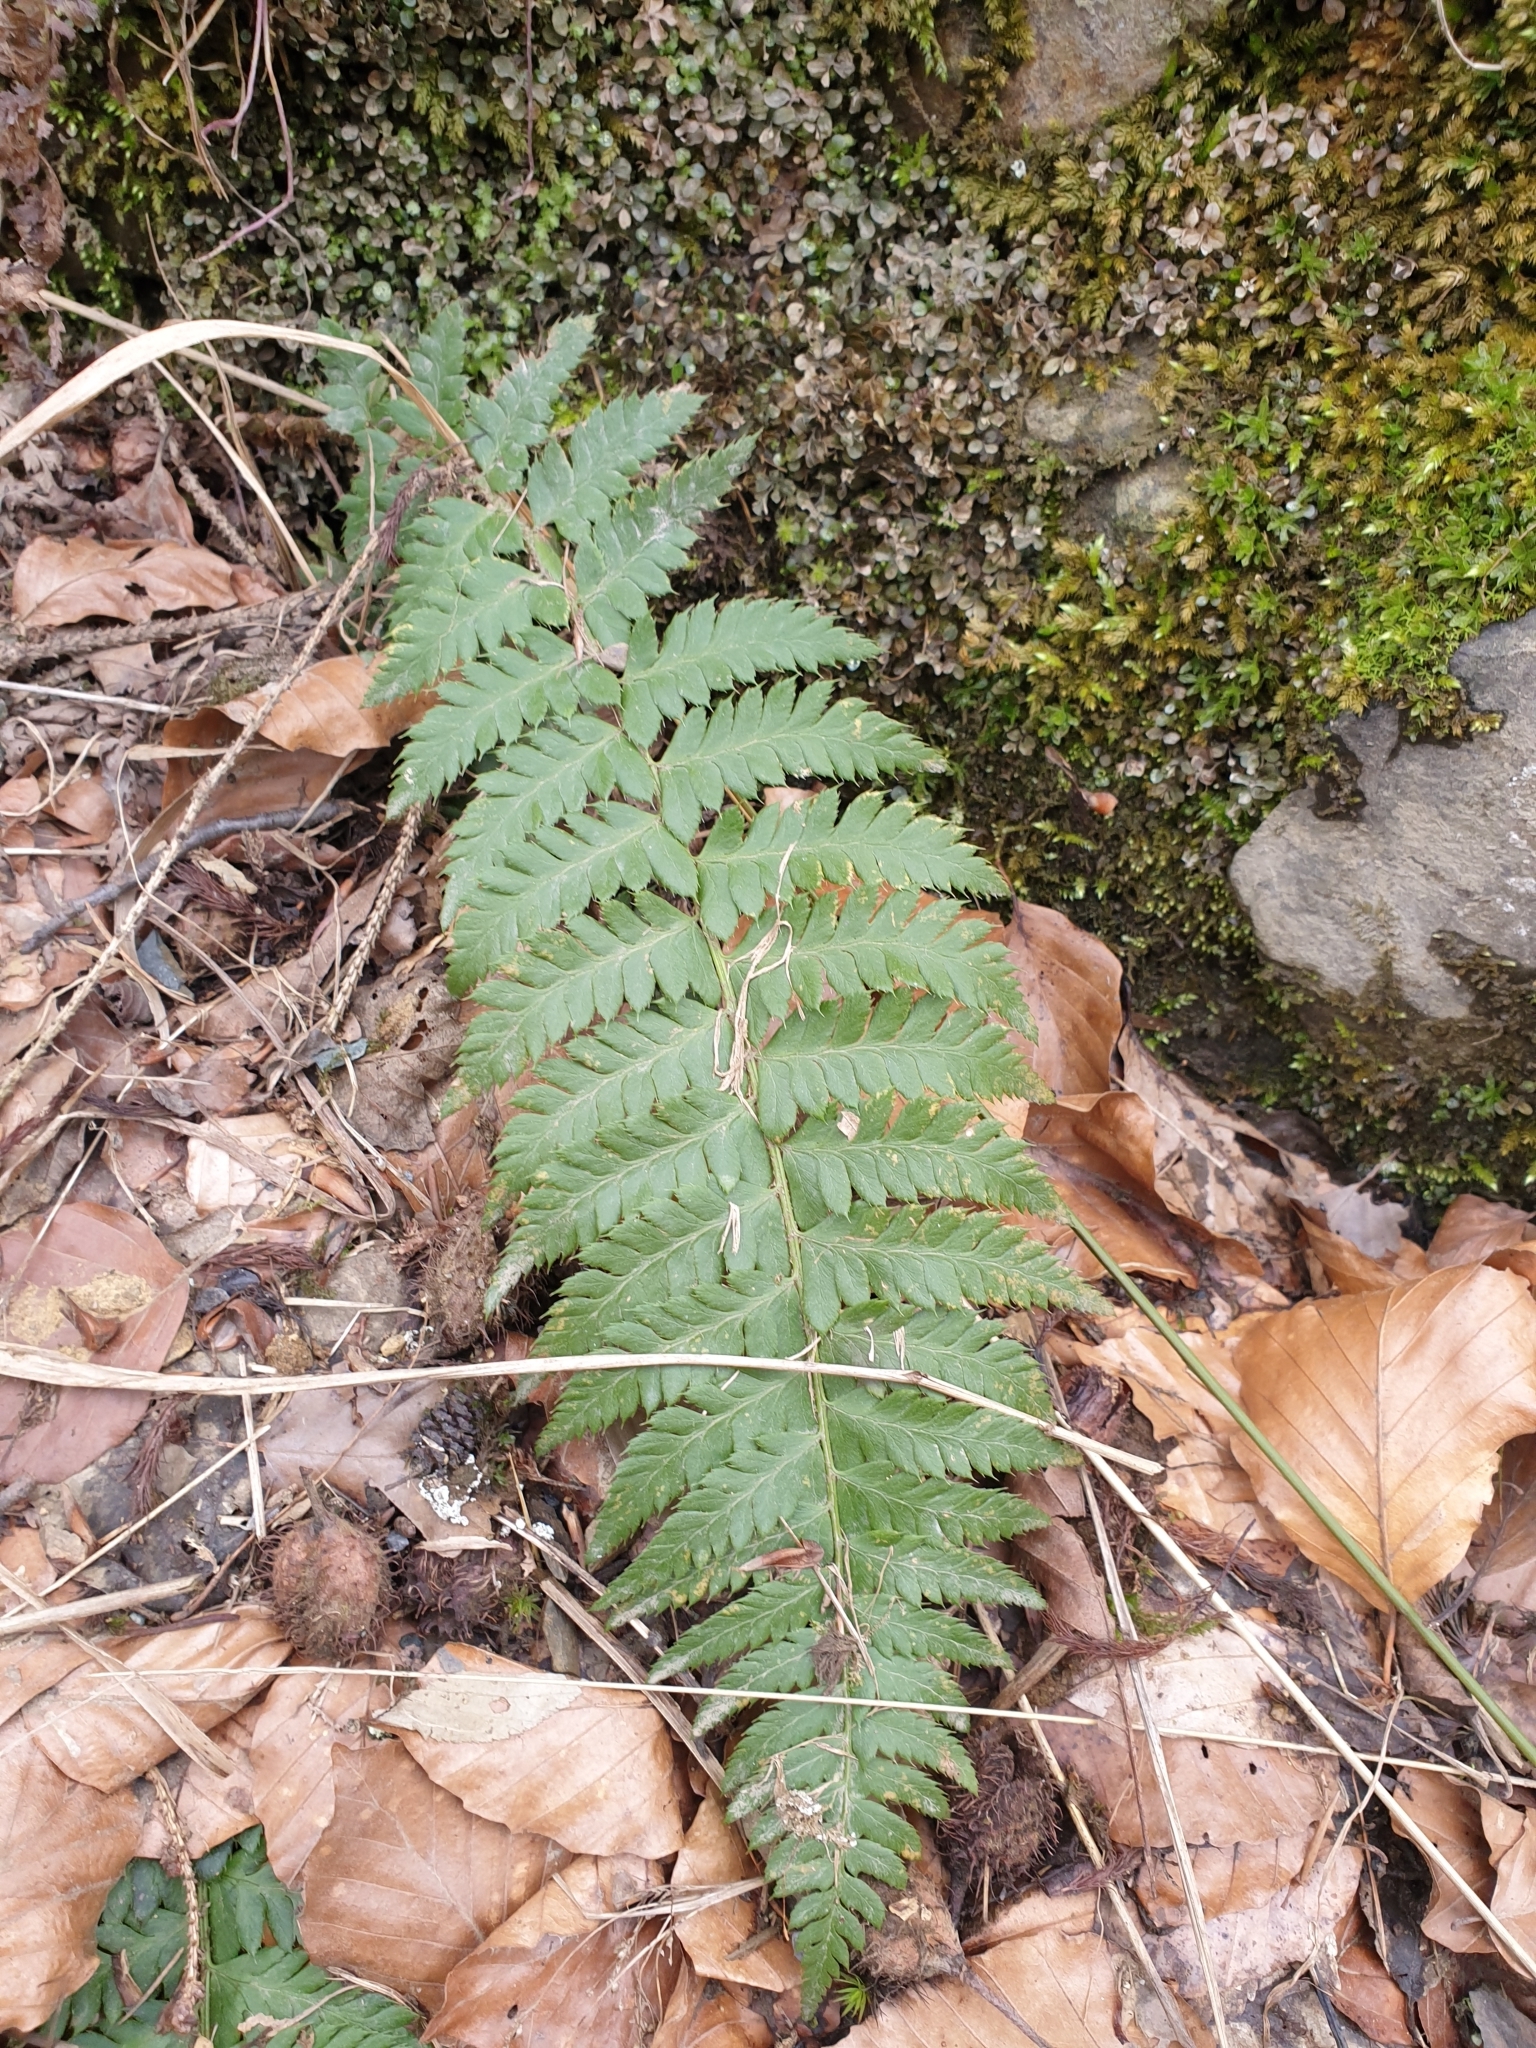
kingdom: Plantae
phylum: Tracheophyta
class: Polypodiopsida
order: Polypodiales
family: Dryopteridaceae
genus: Polystichum
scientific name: Polystichum aculeatum
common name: Hard shield-fern
